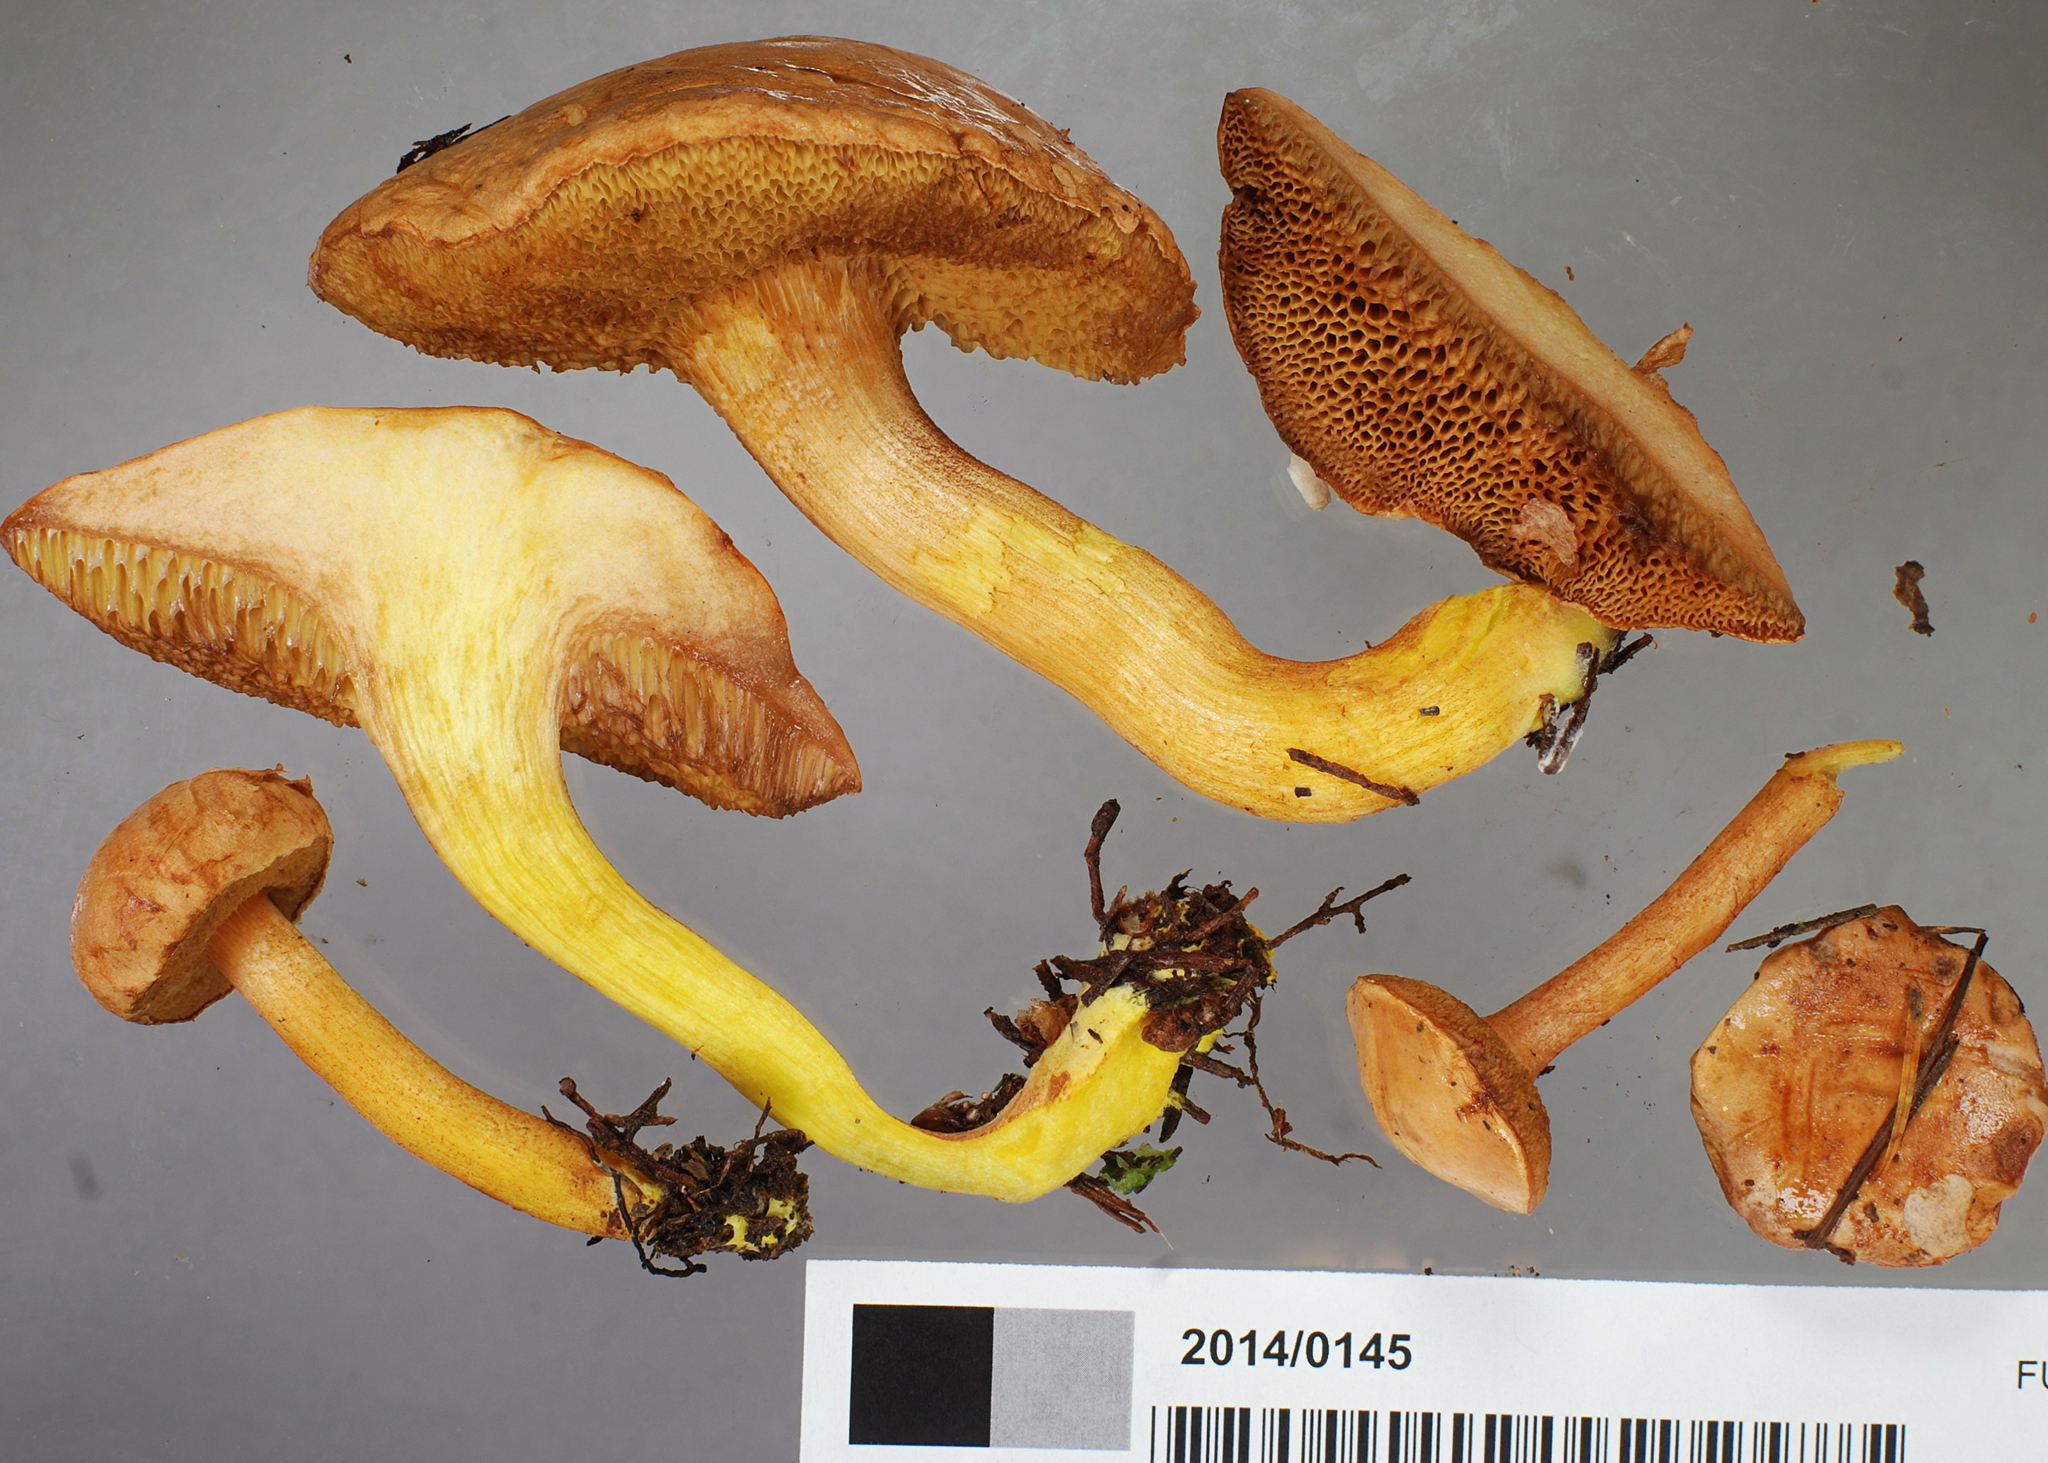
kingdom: Fungi
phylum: Basidiomycota
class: Agaricomycetes
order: Boletales
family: Boletaceae
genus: Chalciporus
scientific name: Chalciporus piperatus
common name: Peppery bolete
